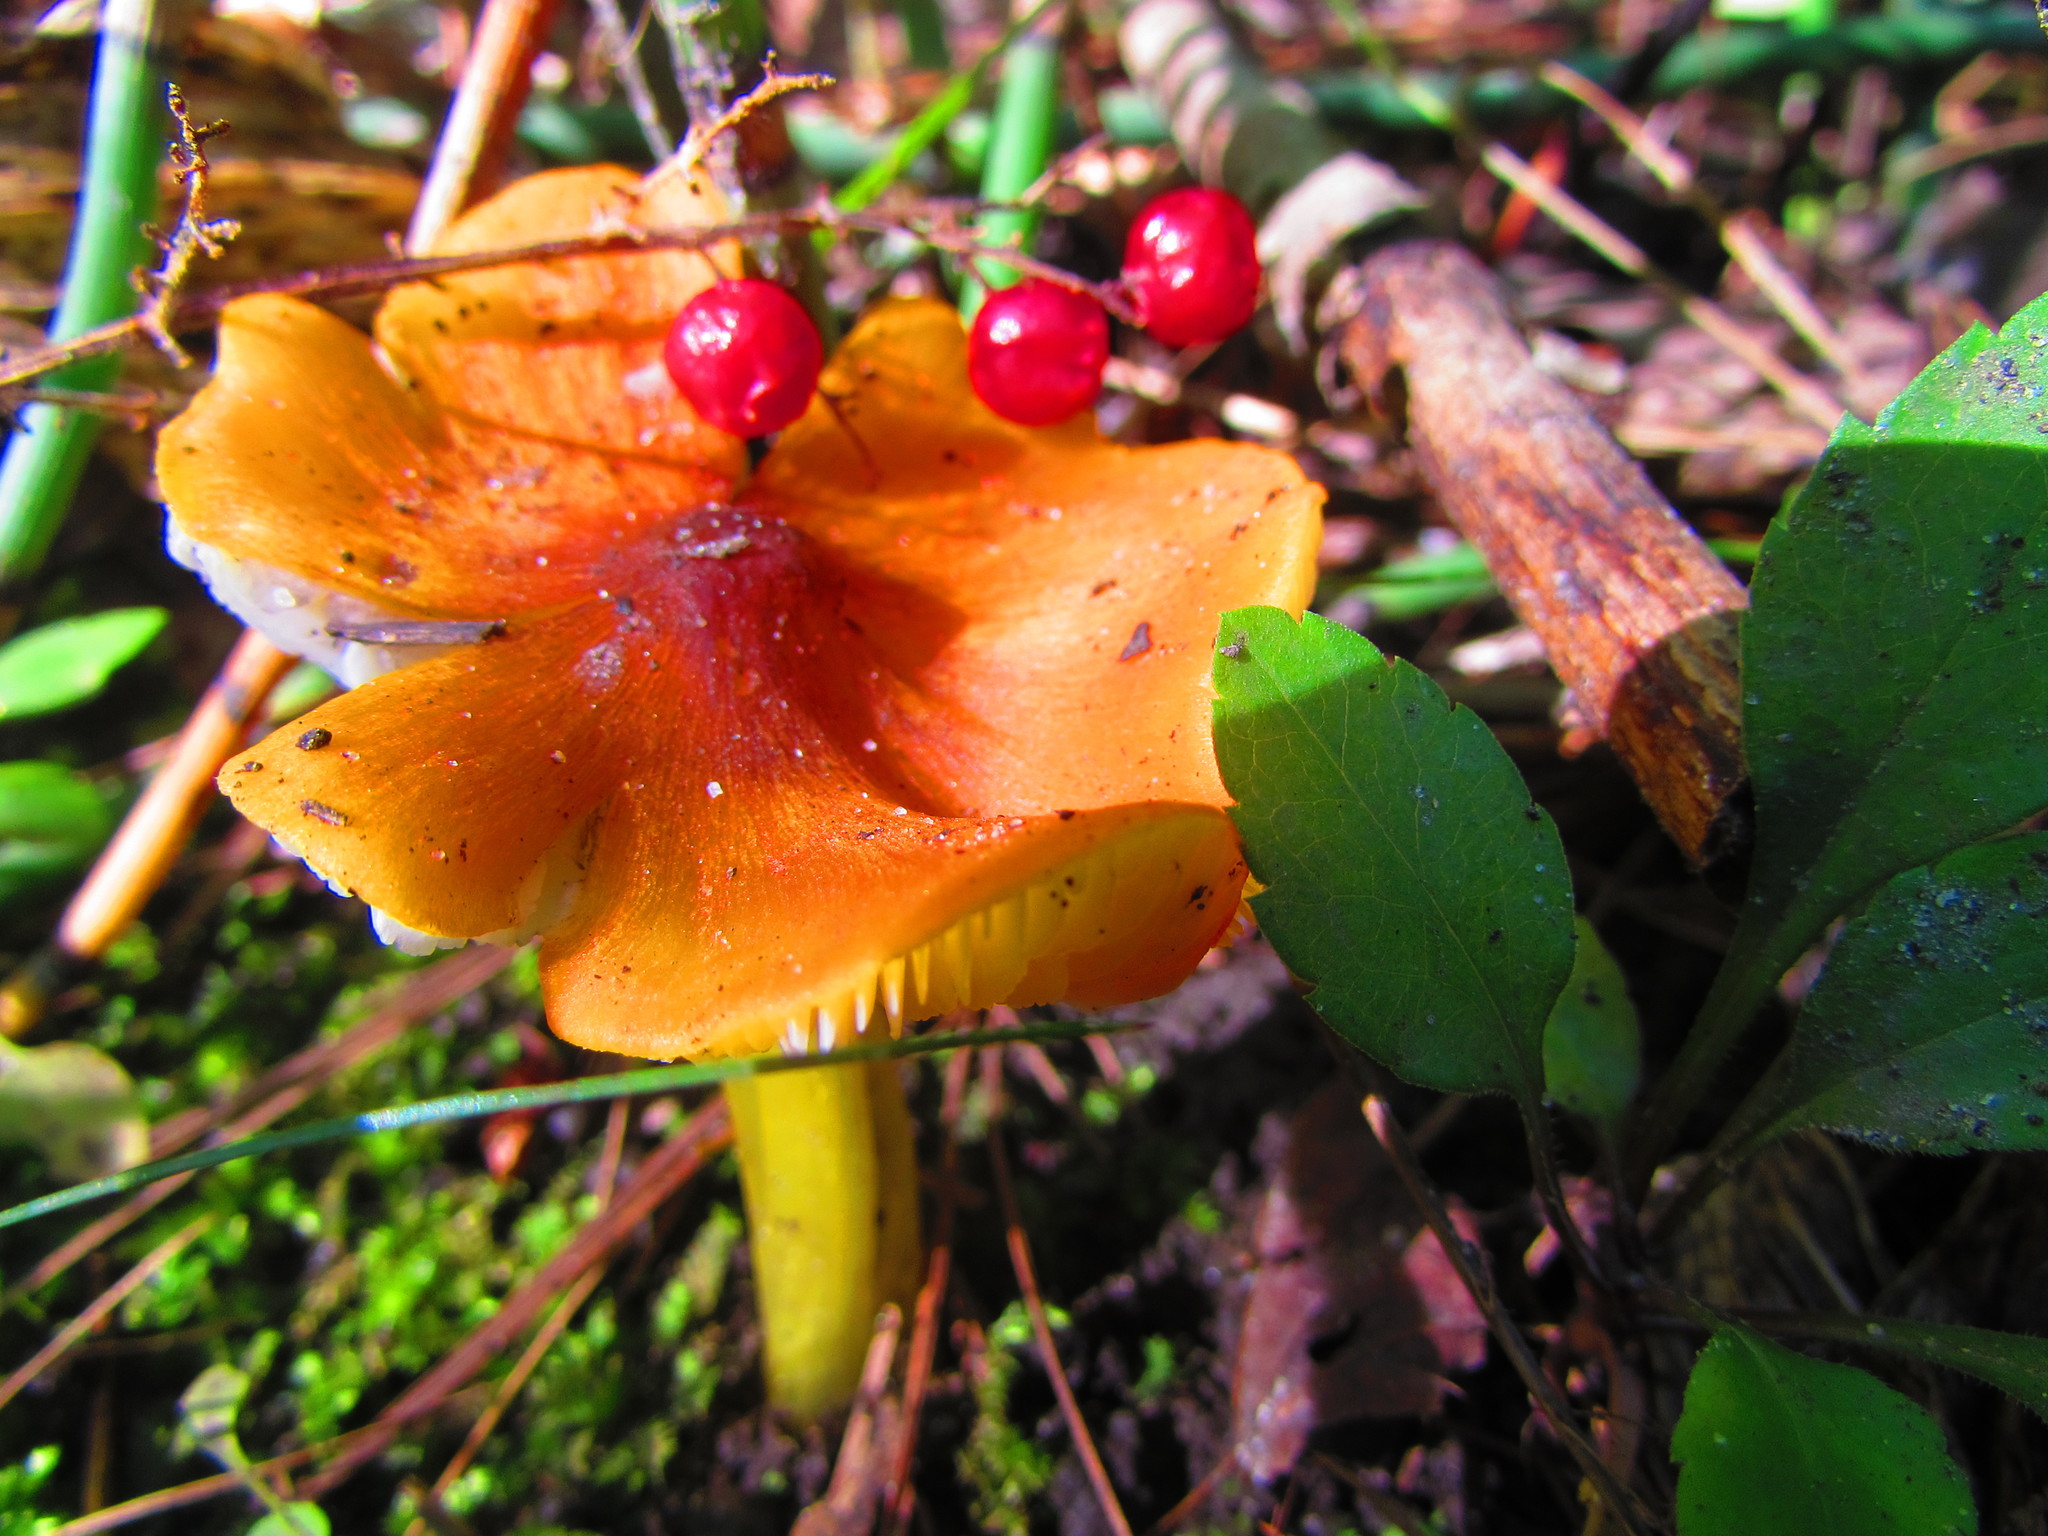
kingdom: Fungi
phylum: Basidiomycota
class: Agaricomycetes
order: Agaricales
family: Hygrophoraceae
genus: Hygrocybe
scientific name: Hygrocybe conica
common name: Blackening wax-cap
